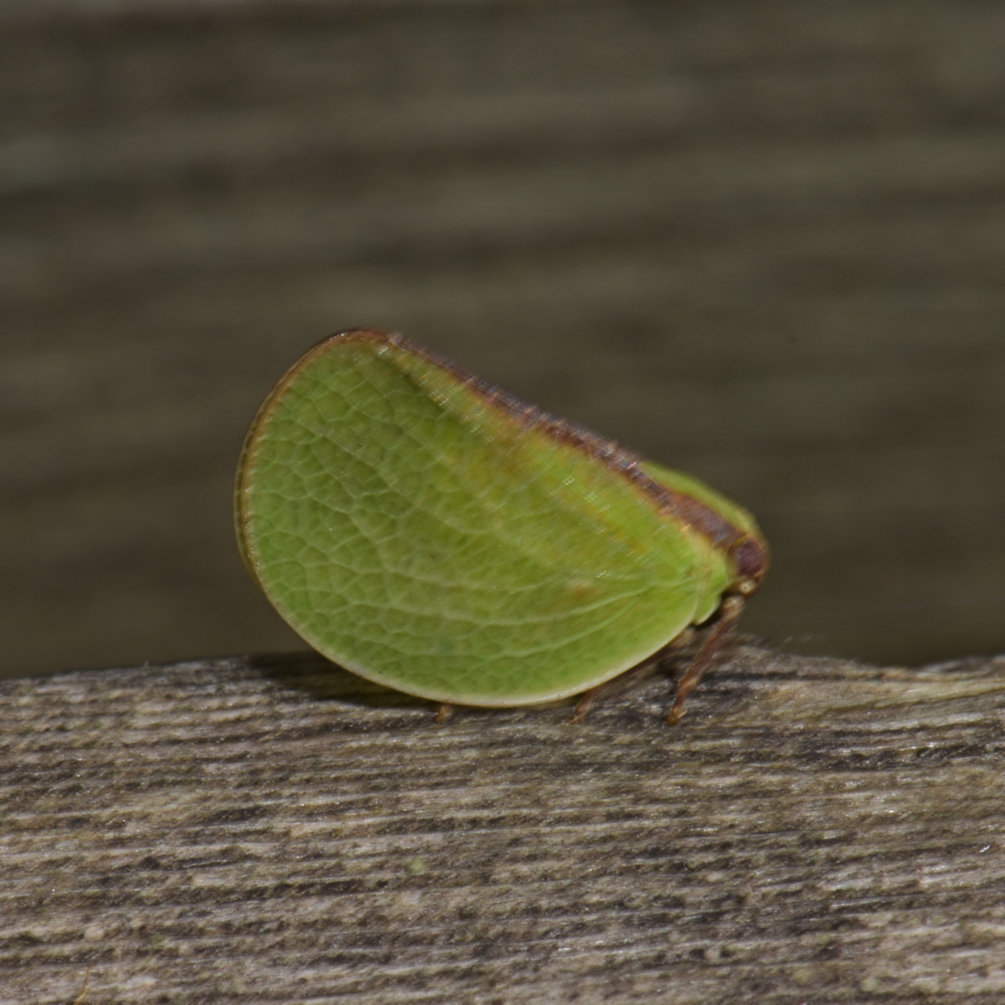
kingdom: Animalia
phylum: Arthropoda
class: Insecta
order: Hemiptera
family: Acanaloniidae
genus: Acanalonia
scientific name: Acanalonia bivittata
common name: Two-striped planthopper
